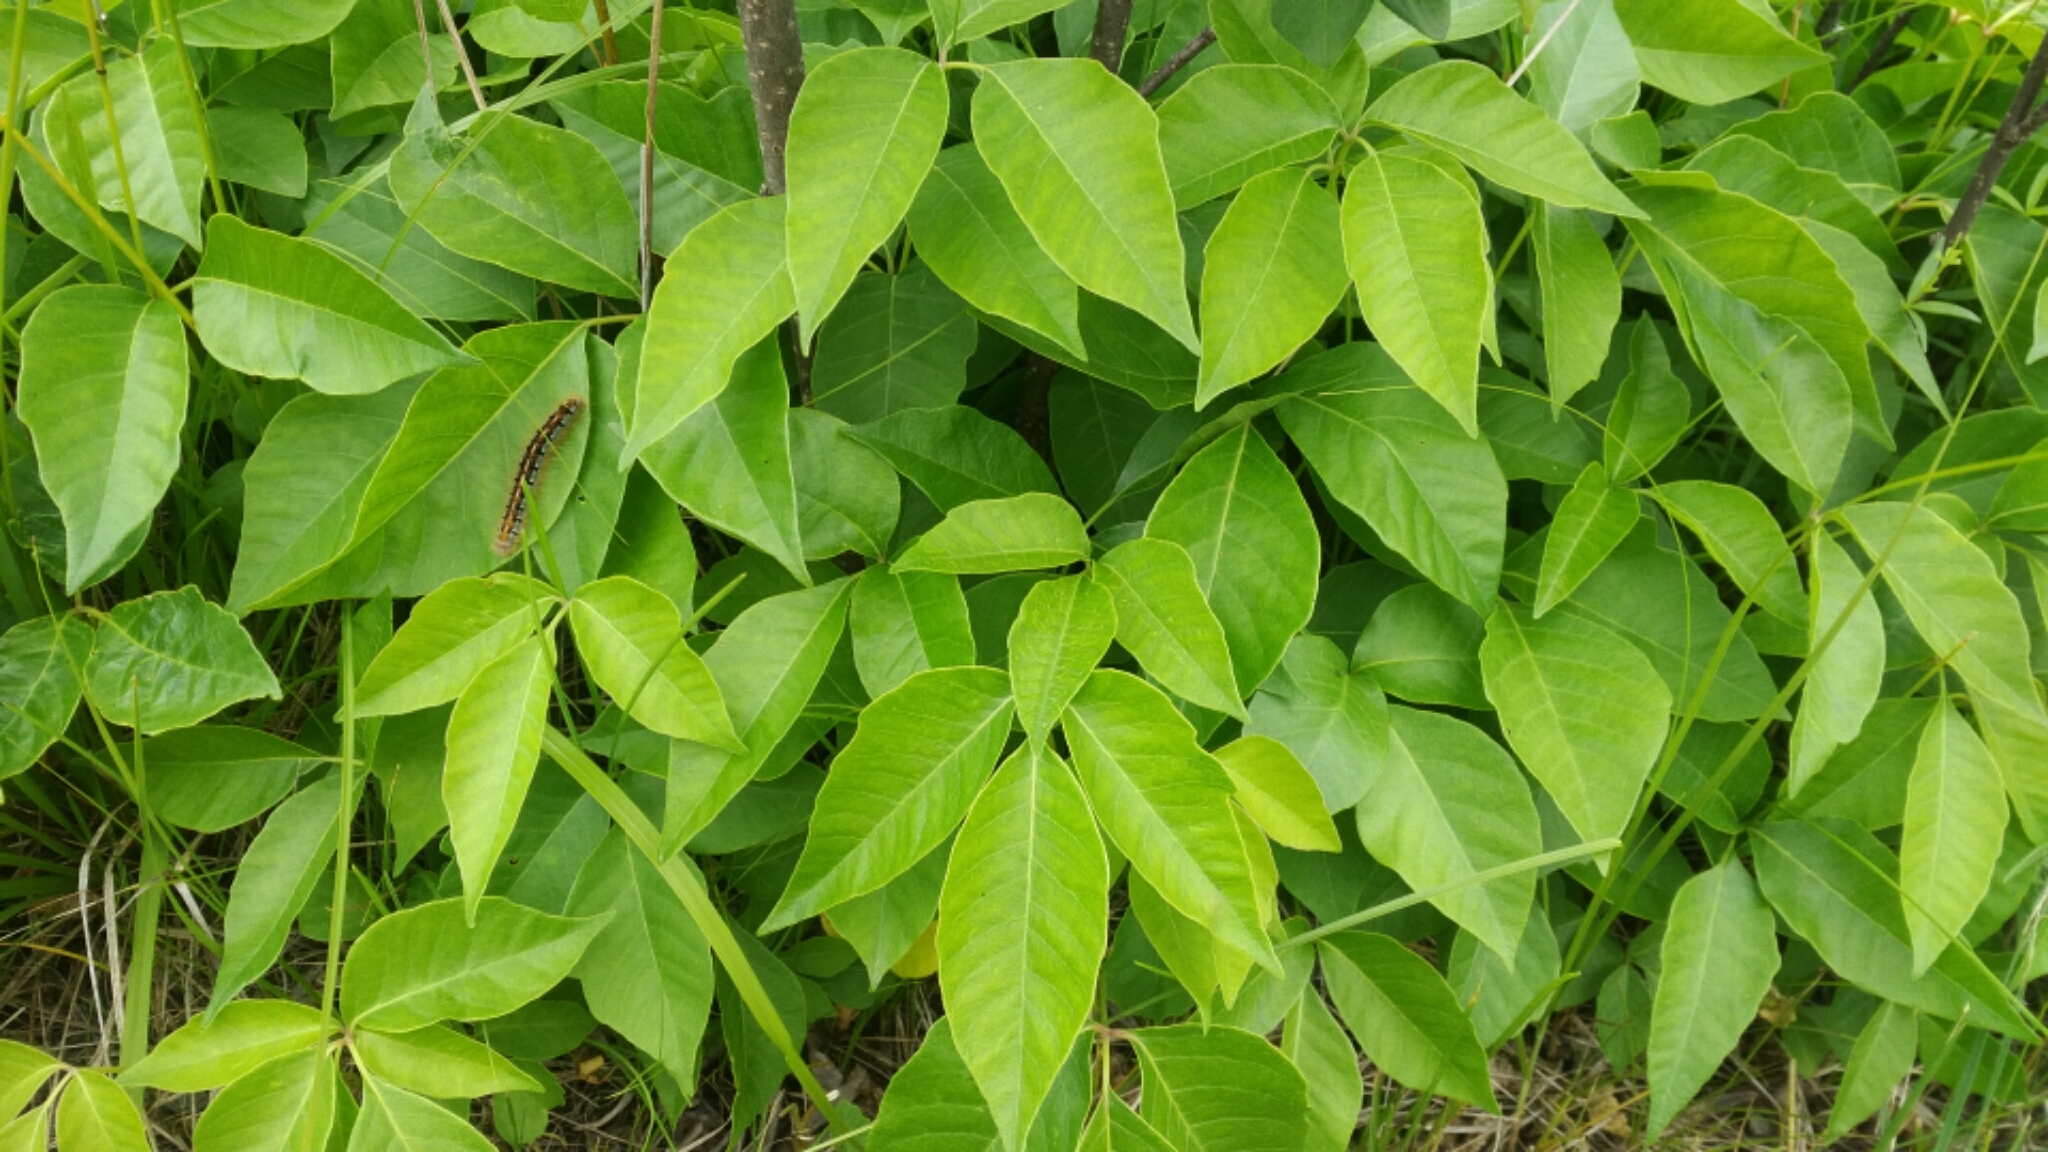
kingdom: Plantae
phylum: Tracheophyta
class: Magnoliopsida
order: Sapindales
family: Anacardiaceae
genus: Toxicodendron
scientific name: Toxicodendron rydbergii
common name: Rydberg's poison-ivy
